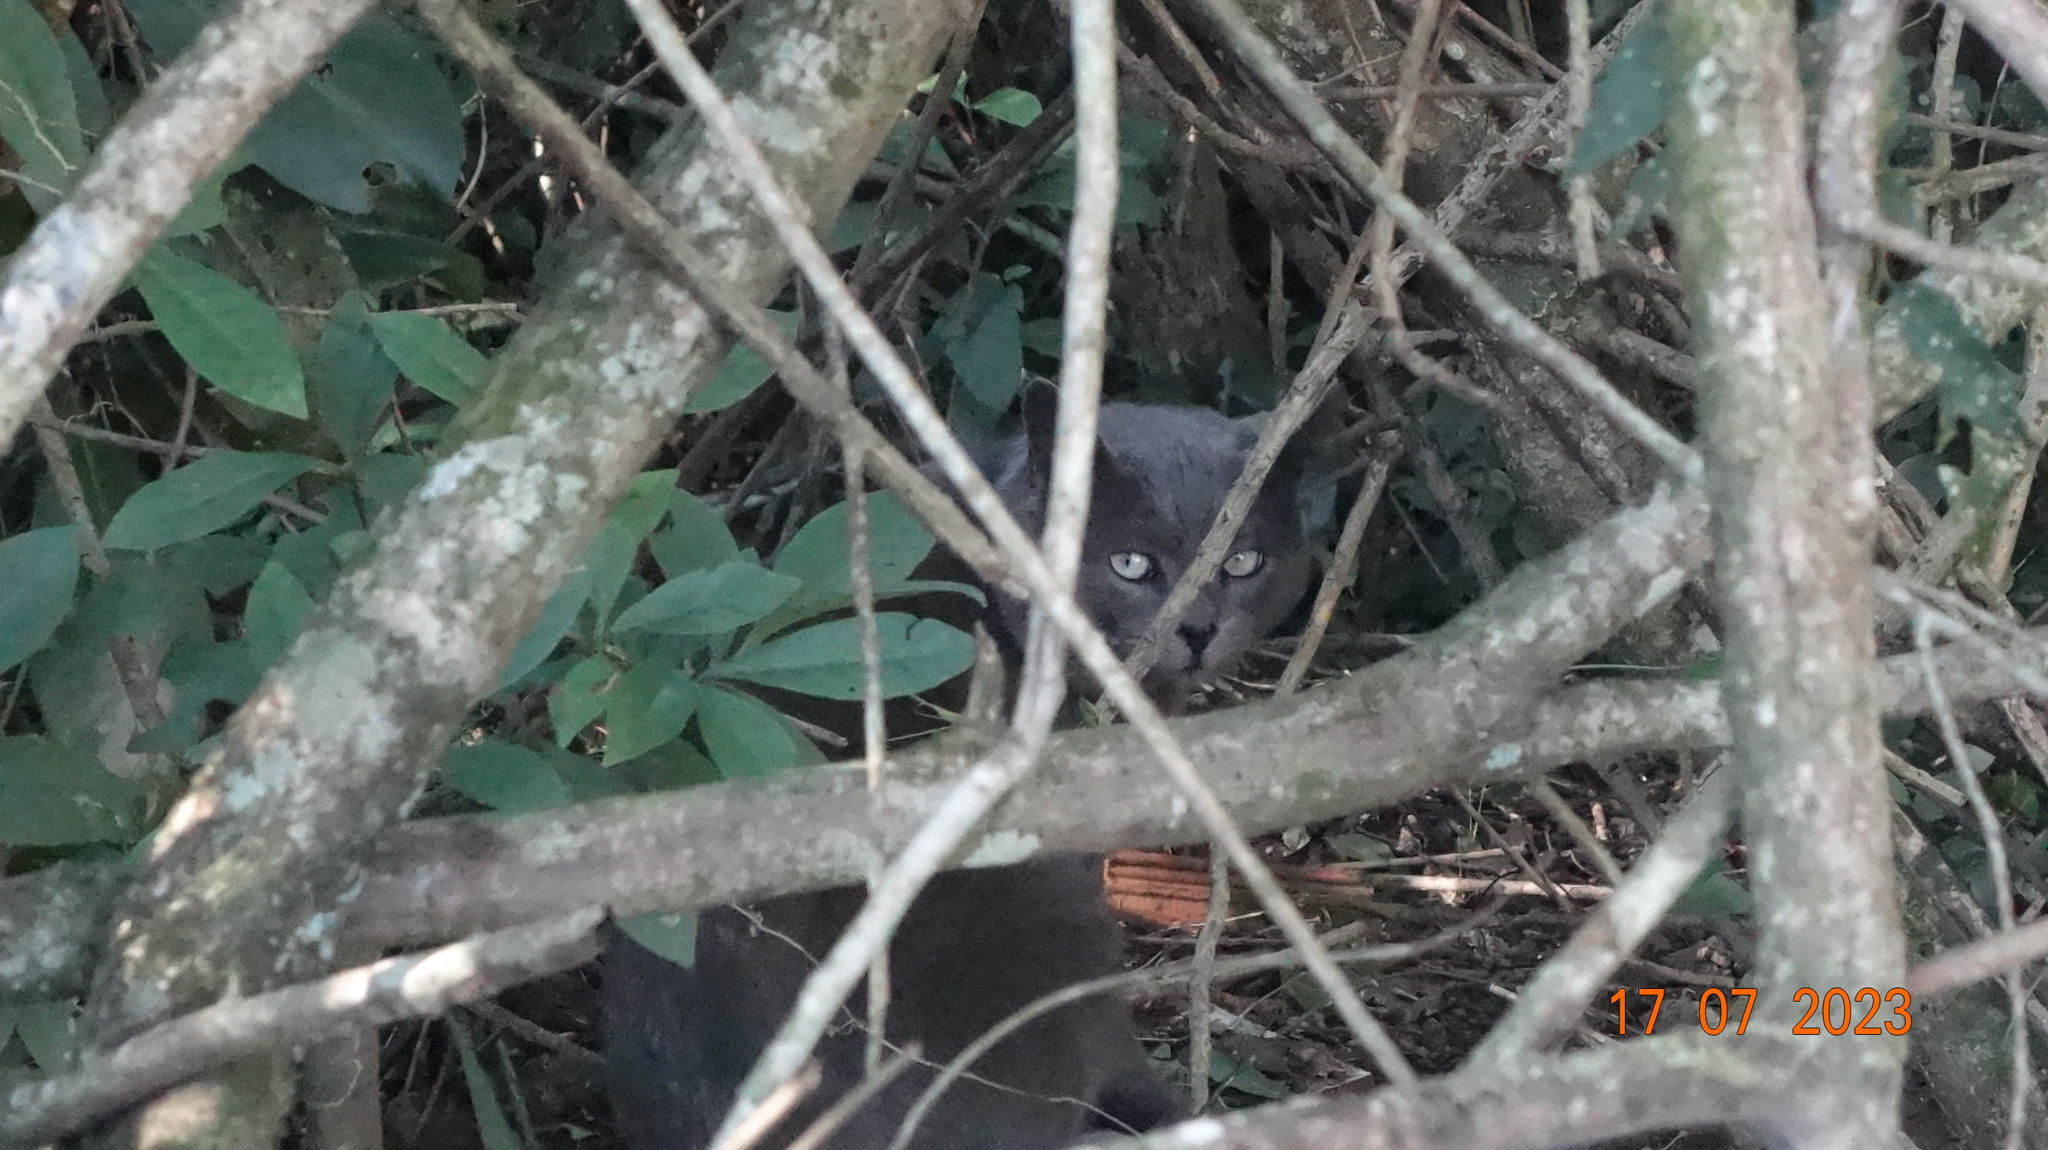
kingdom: Animalia
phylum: Chordata
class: Mammalia
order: Carnivora
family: Felidae
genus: Felis
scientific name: Felis catus
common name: Domestic cat
